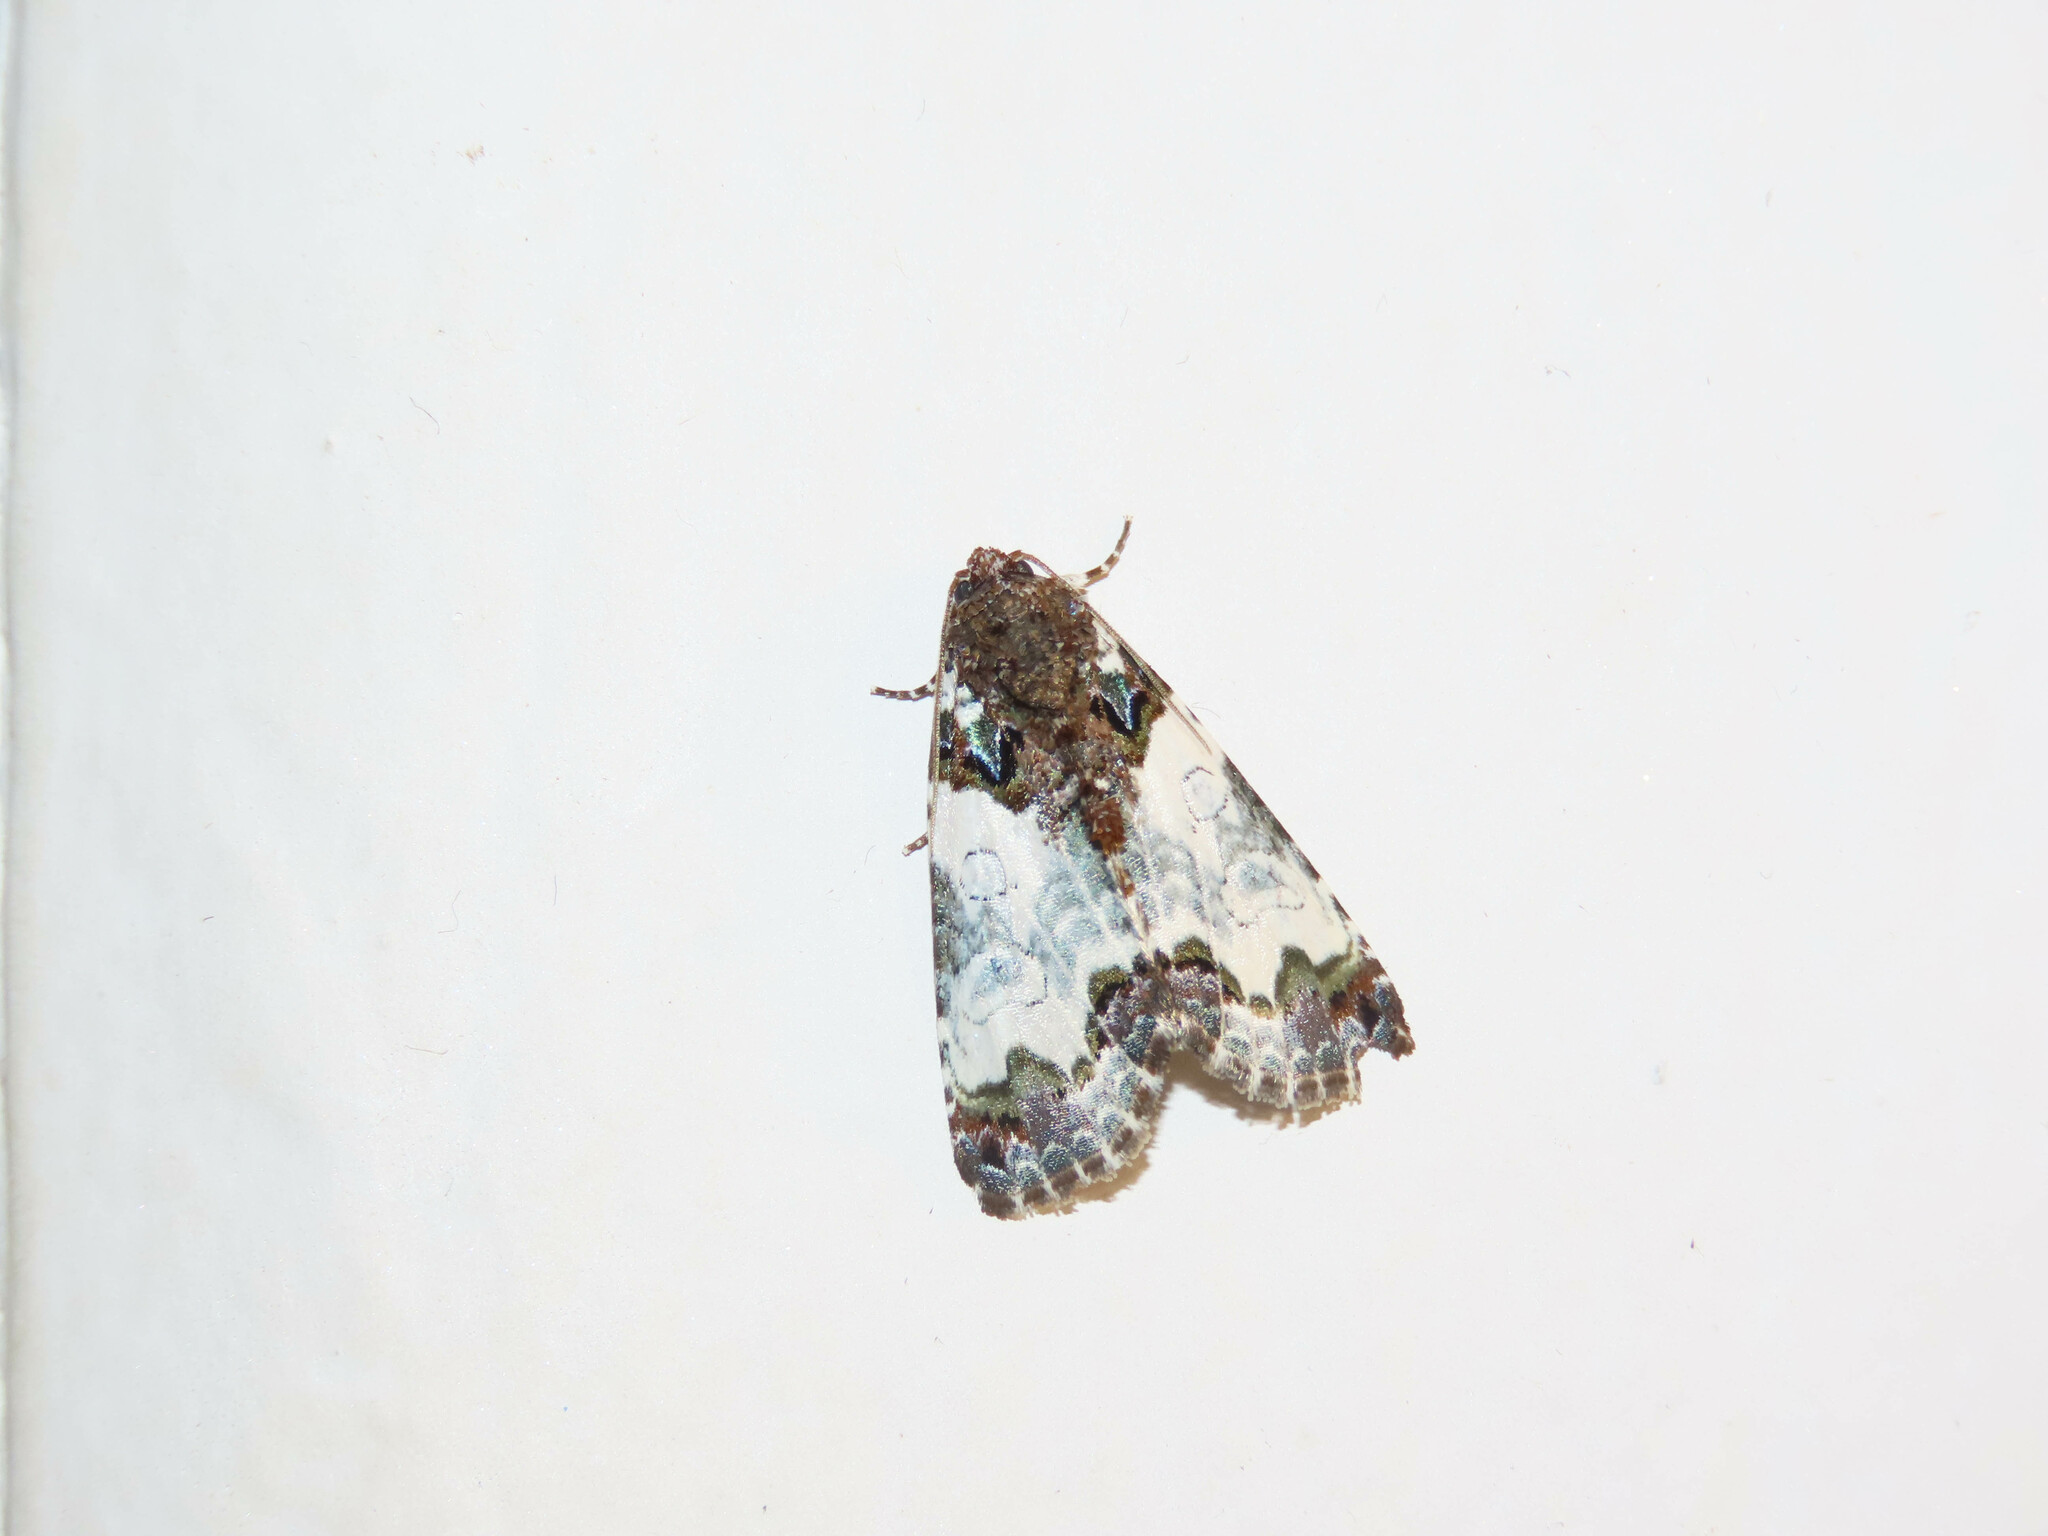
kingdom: Animalia
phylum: Arthropoda
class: Insecta
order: Lepidoptera
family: Noctuidae
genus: Cerma
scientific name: Cerma cerintha
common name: Tufted bird-dropping moth
